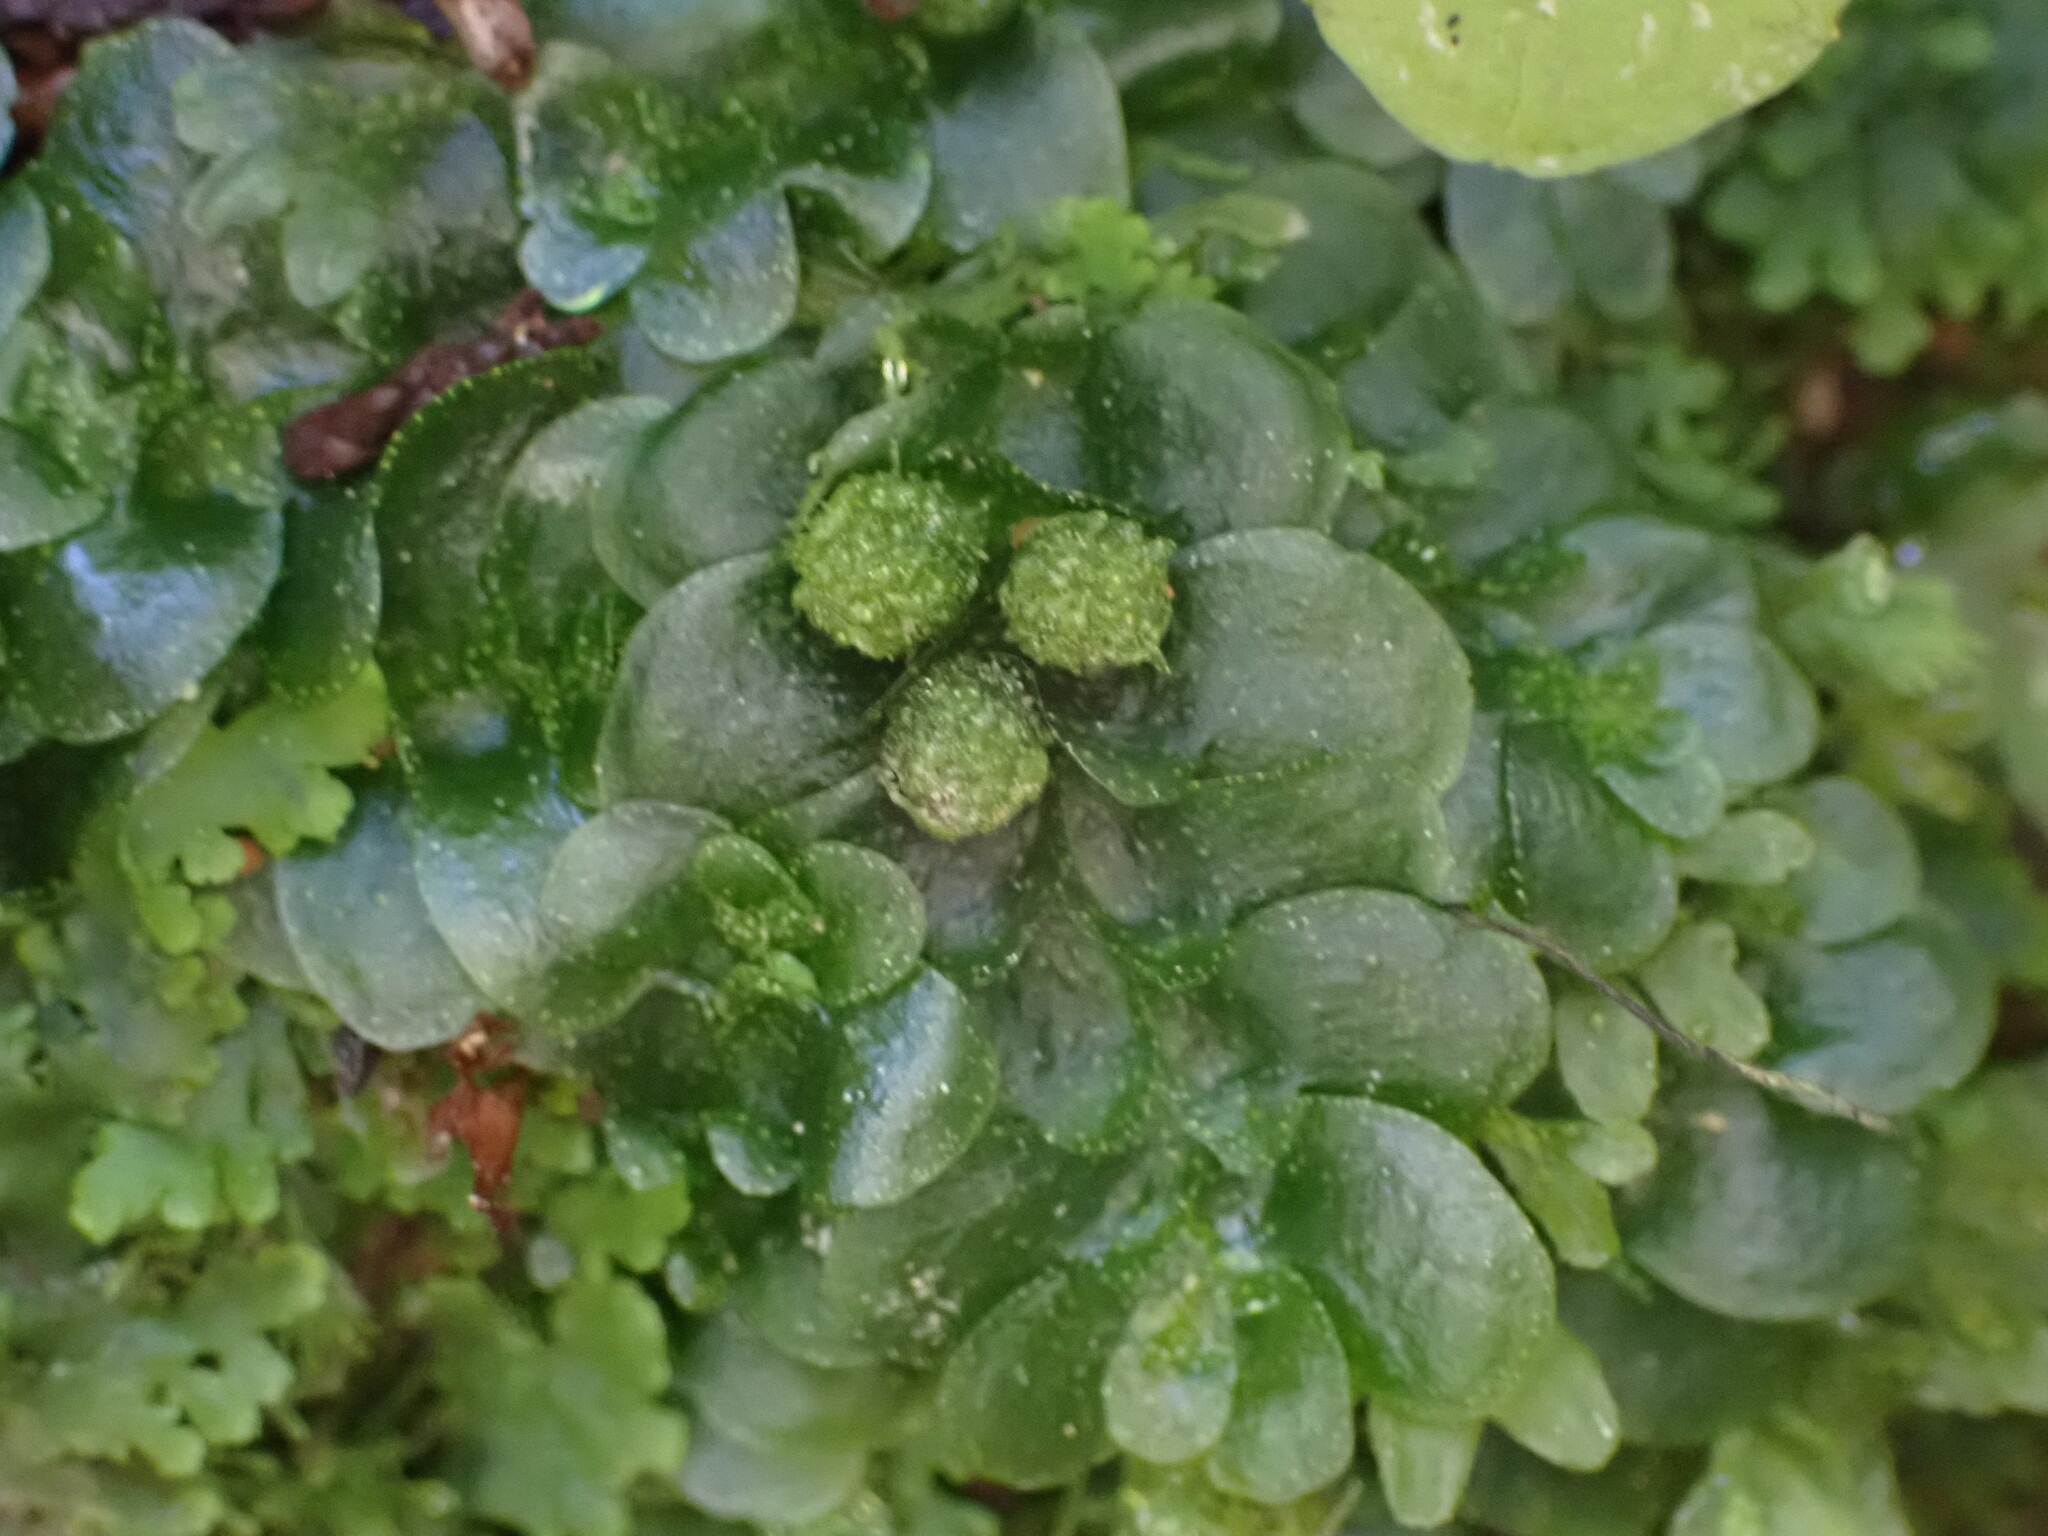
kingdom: Plantae
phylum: Marchantiophyta
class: Haplomitriopsida
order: Treubiales
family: Treubiaceae
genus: Treubia
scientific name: Treubia lacunosa
